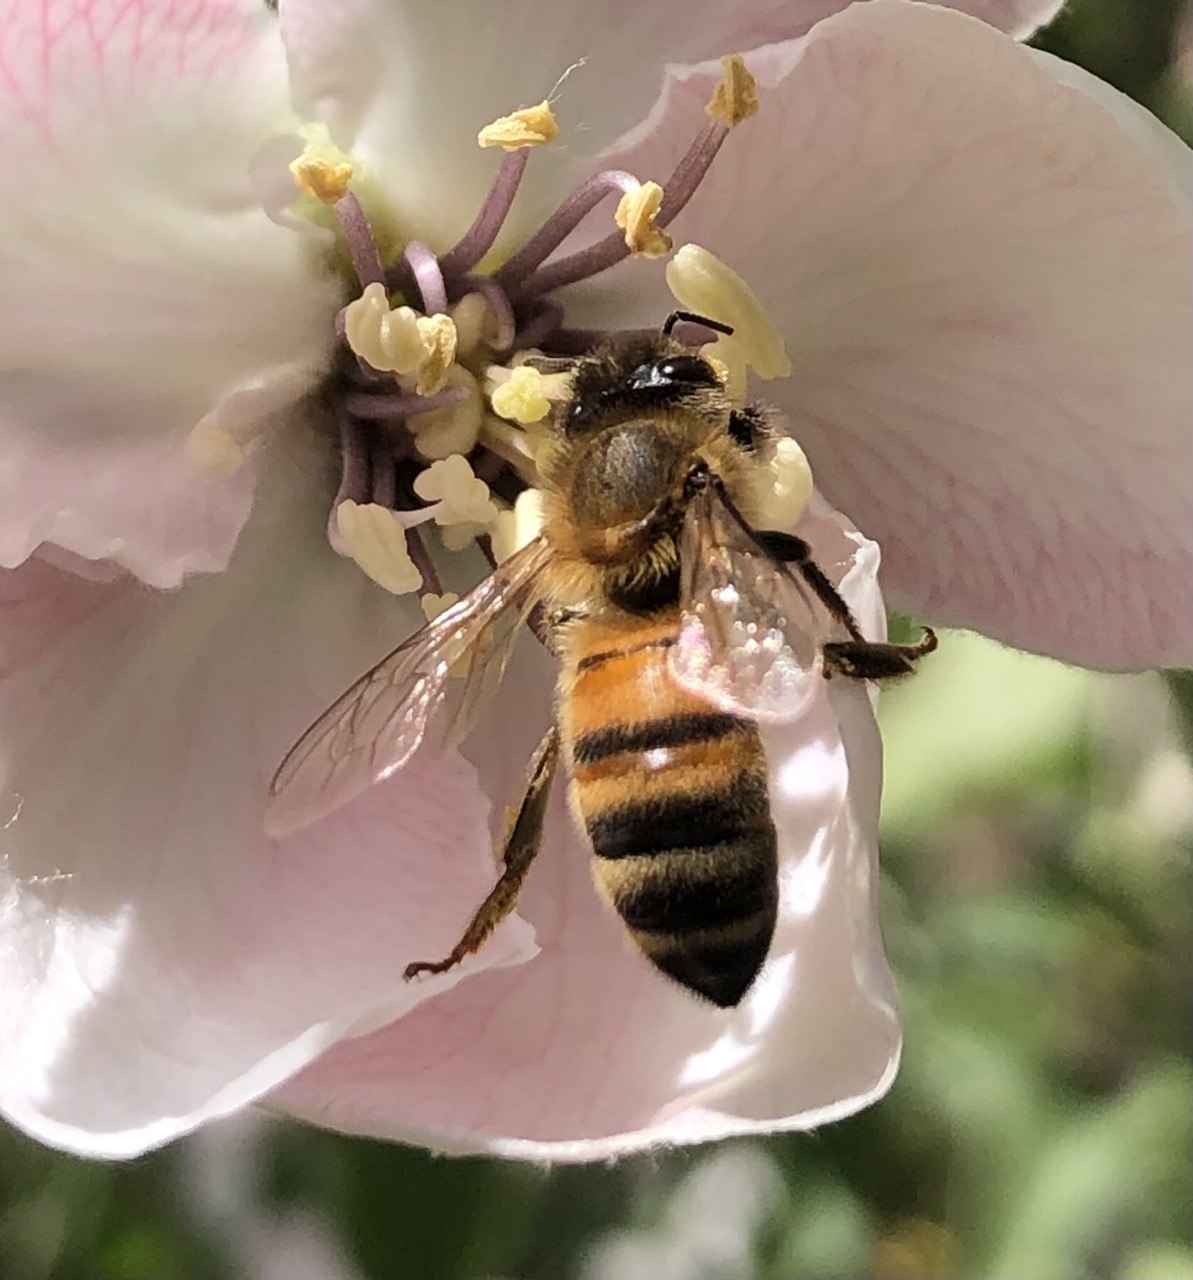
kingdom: Animalia
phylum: Arthropoda
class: Insecta
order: Hymenoptera
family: Apidae
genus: Apis
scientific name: Apis mellifera
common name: Honey bee
